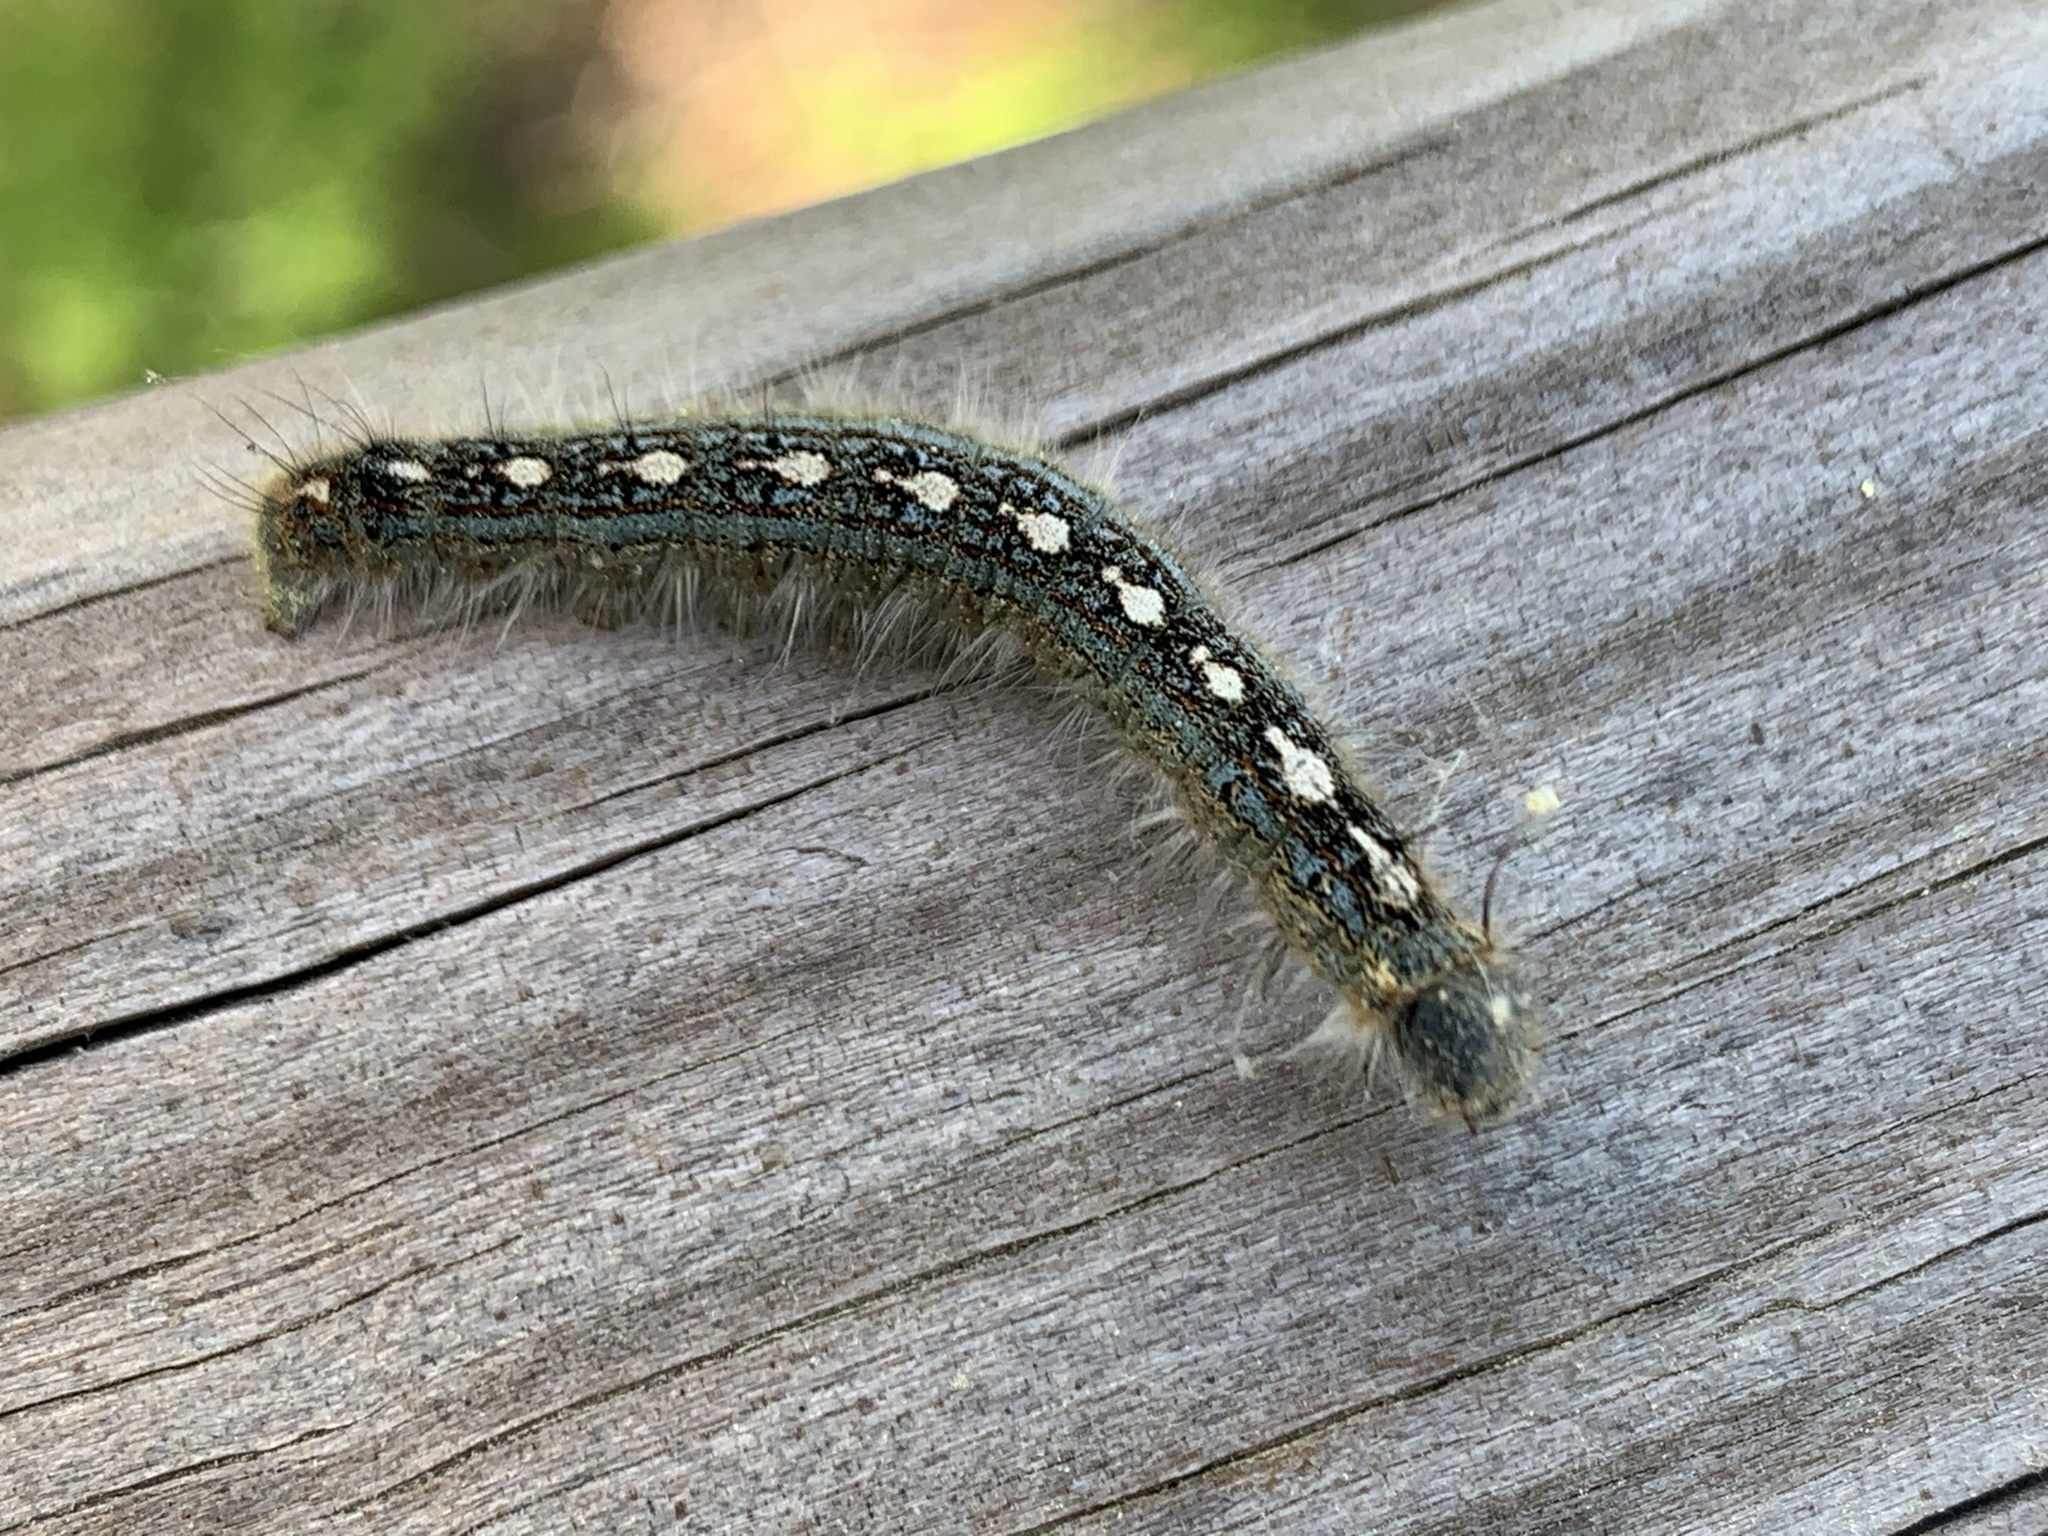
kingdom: Animalia
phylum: Arthropoda
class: Insecta
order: Lepidoptera
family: Lasiocampidae
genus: Malacosoma
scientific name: Malacosoma disstria
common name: Forest tent caterpillar
